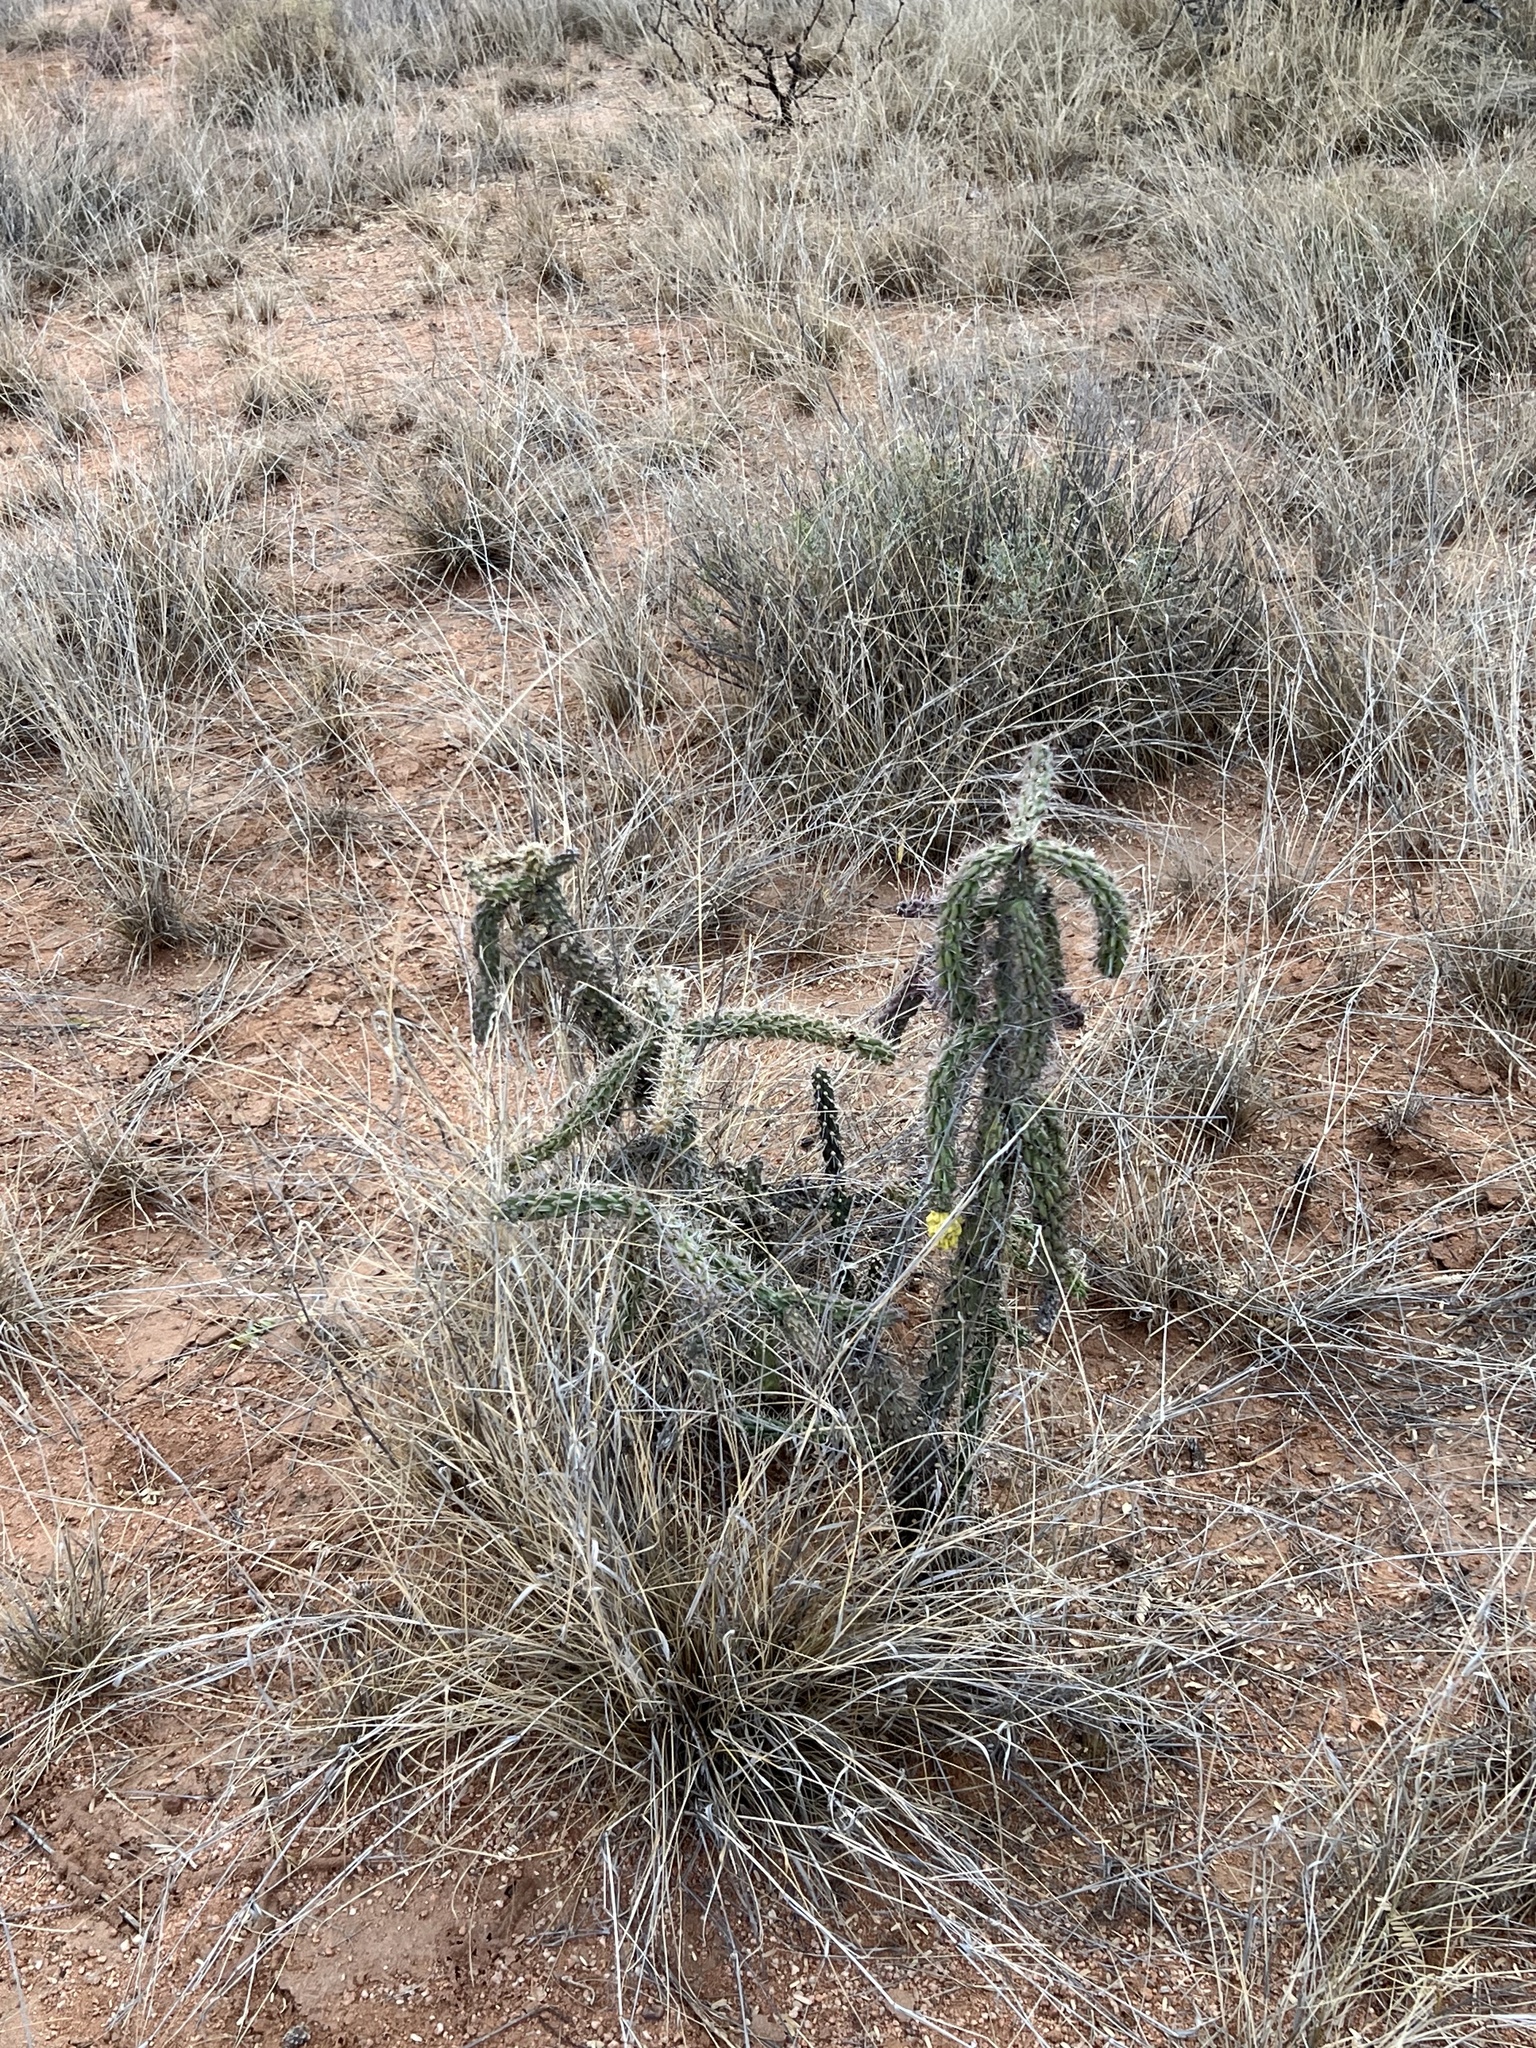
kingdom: Plantae
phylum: Tracheophyta
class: Magnoliopsida
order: Caryophyllales
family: Cactaceae
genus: Cylindropuntia
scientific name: Cylindropuntia imbricata
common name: Candelabrum cactus
